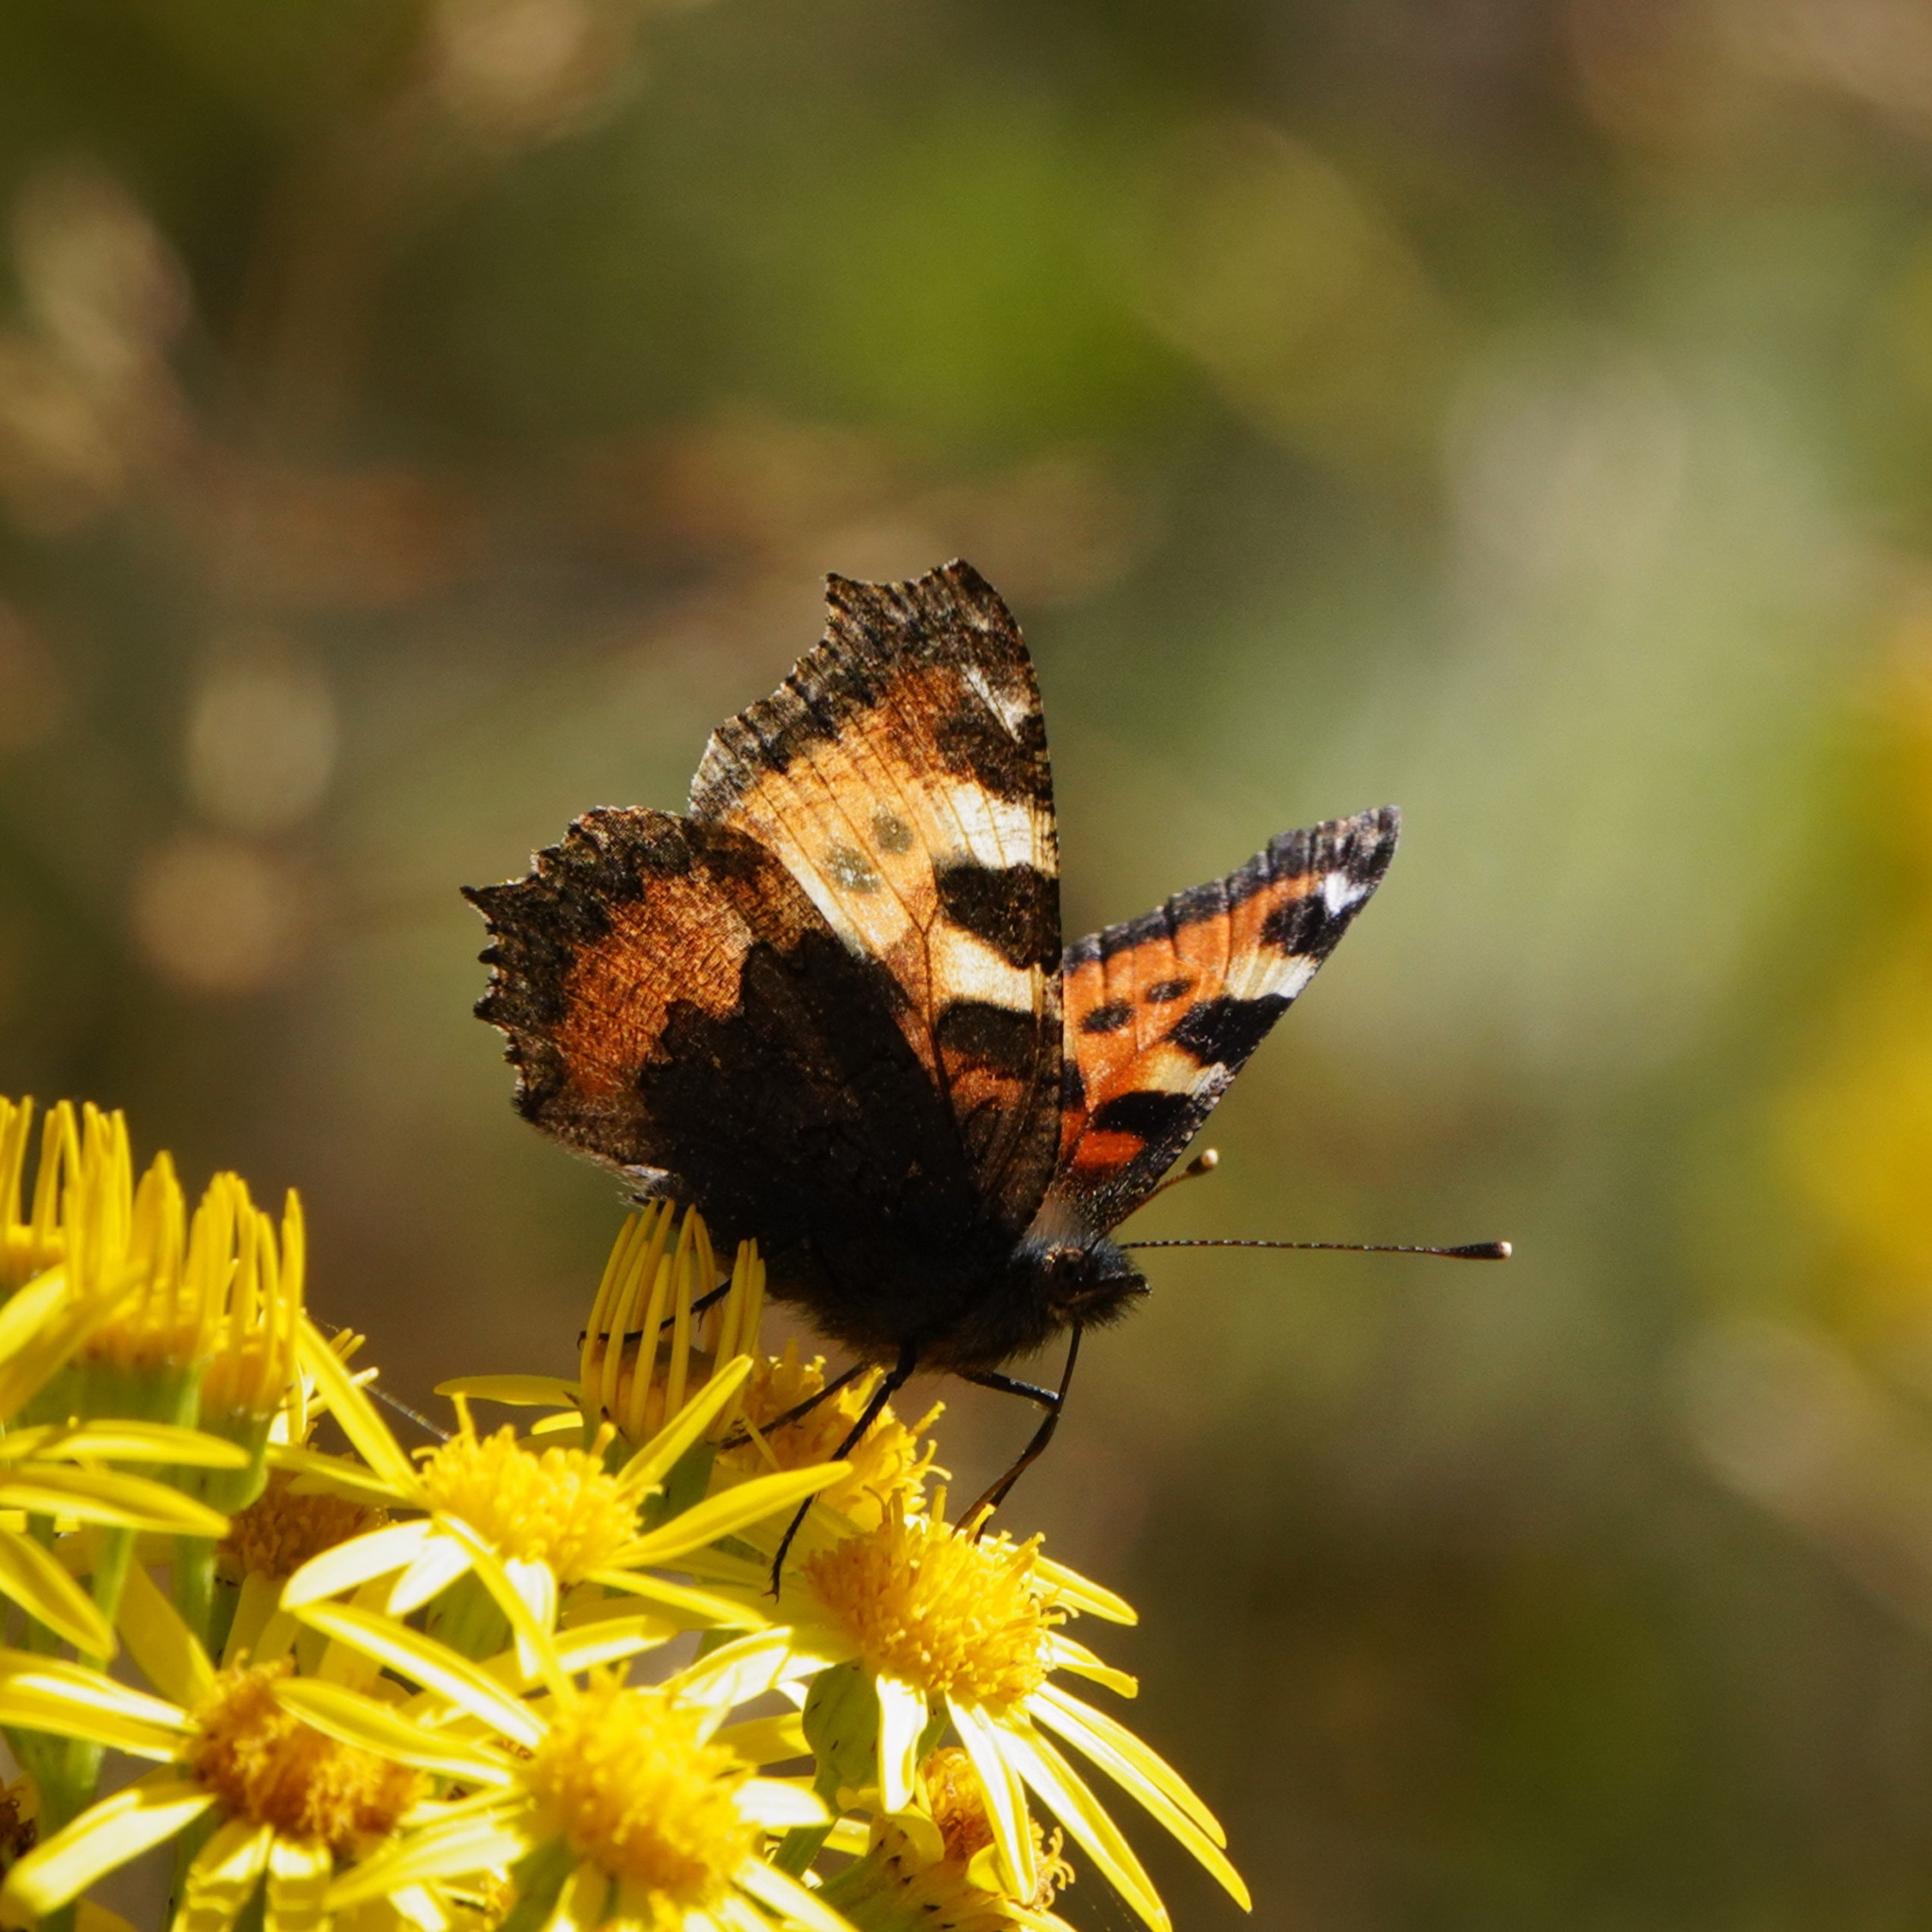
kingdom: Animalia
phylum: Arthropoda
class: Insecta
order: Lepidoptera
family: Nymphalidae
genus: Aglais
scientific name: Aglais urticae
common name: Small tortoiseshell
